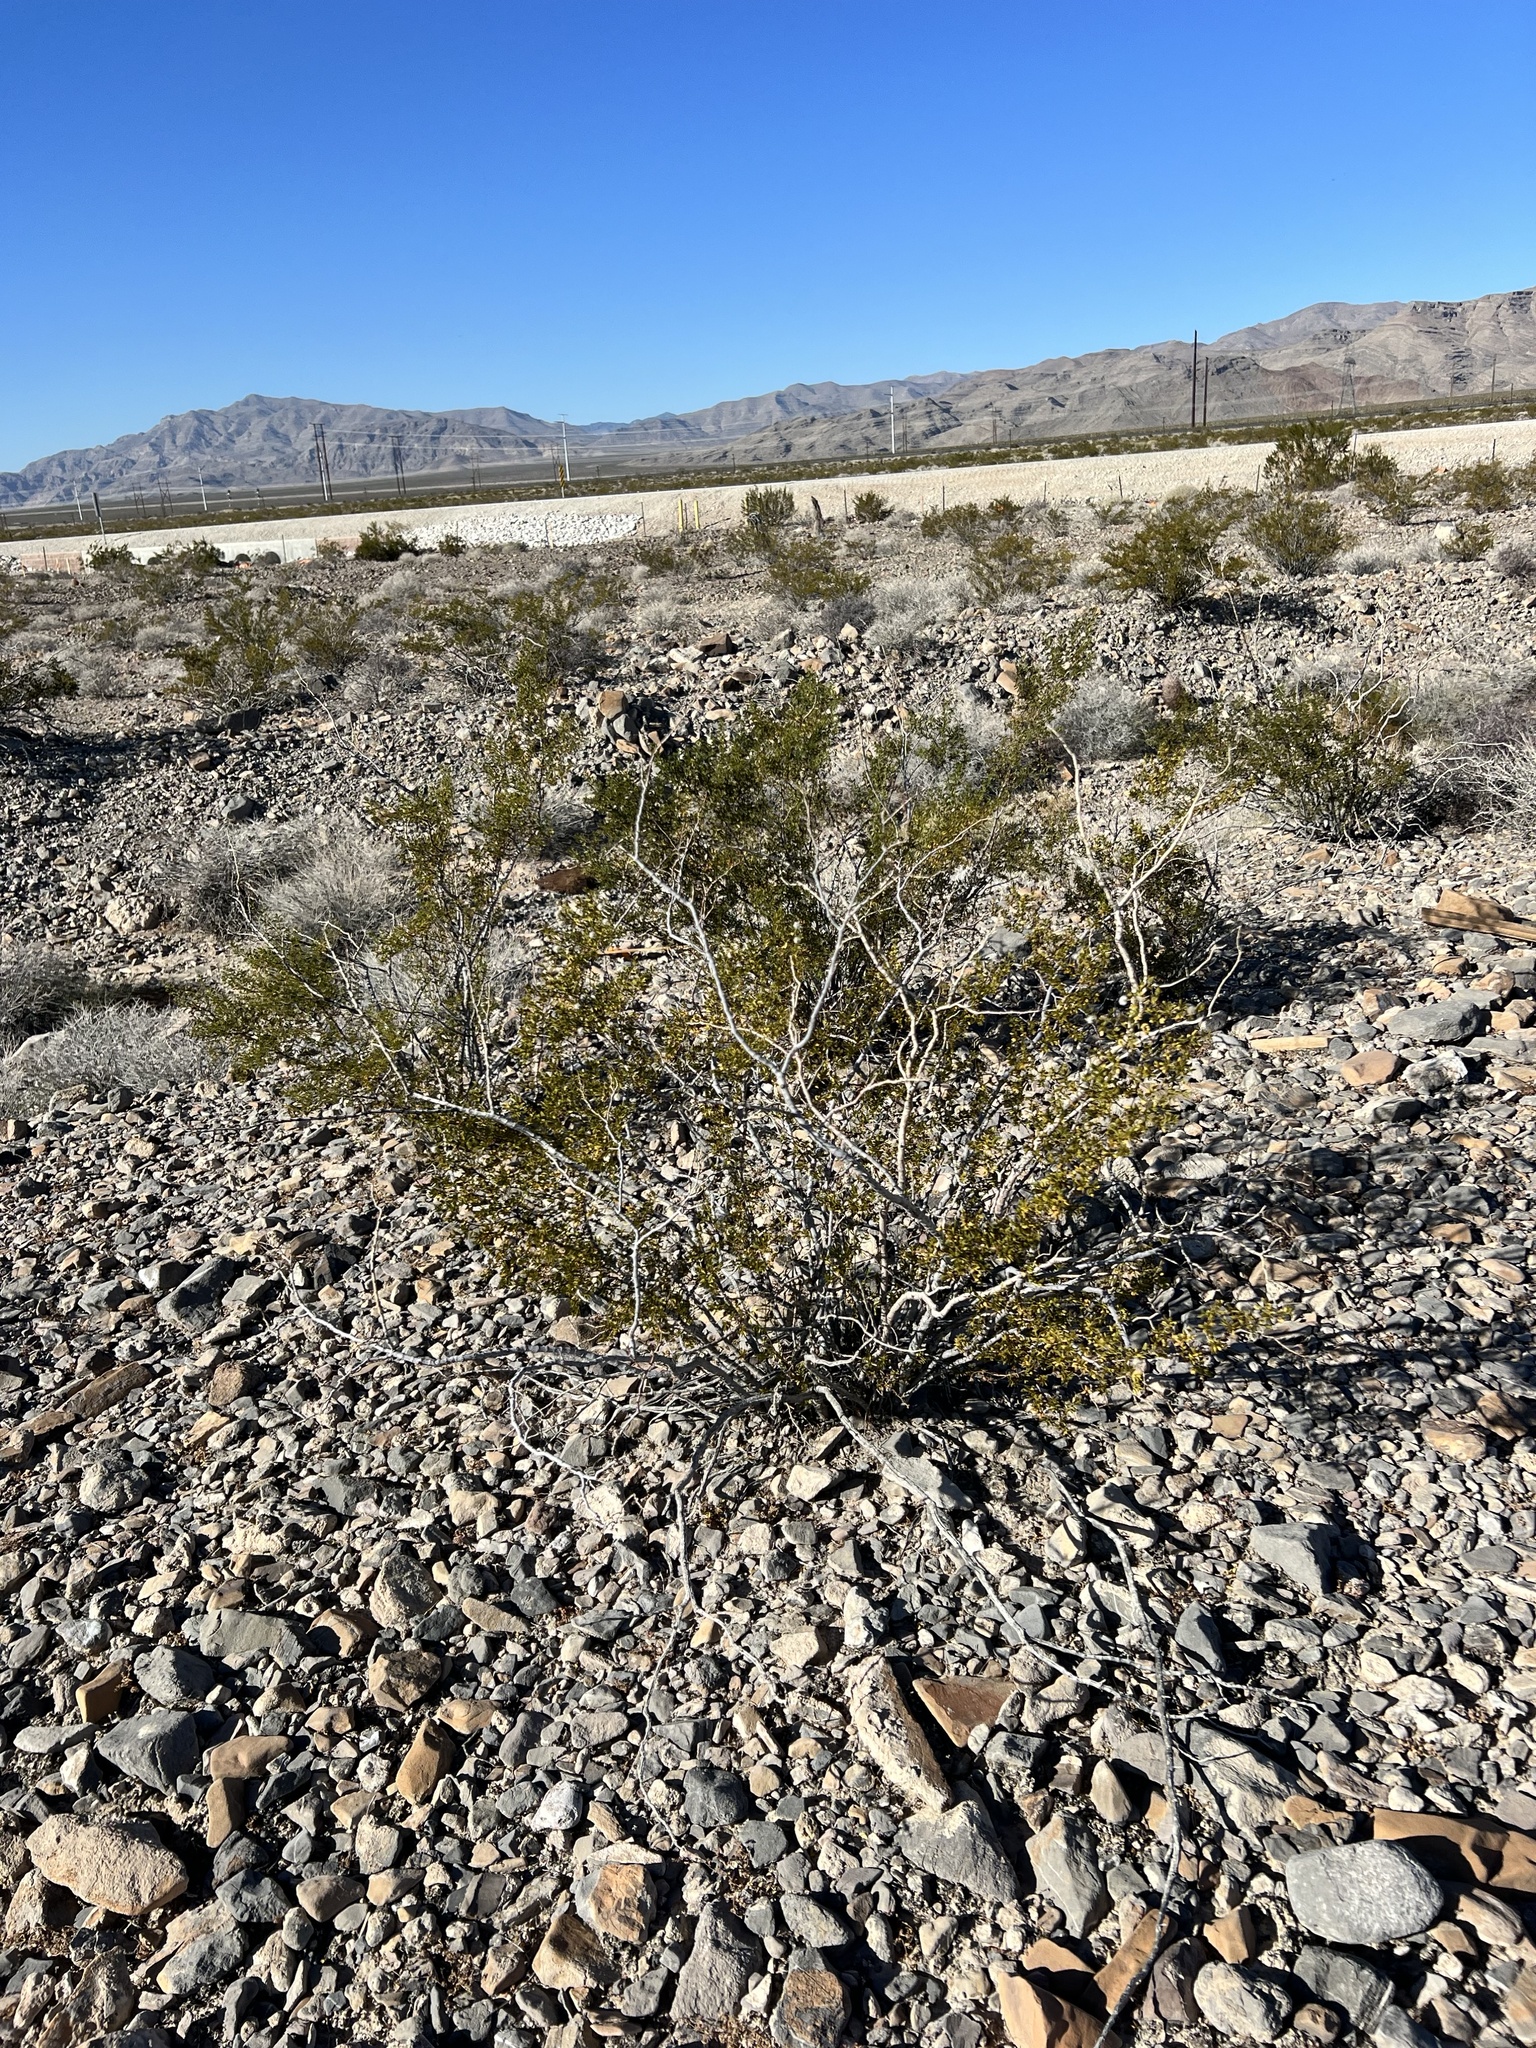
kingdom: Plantae
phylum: Tracheophyta
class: Magnoliopsida
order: Zygophyllales
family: Zygophyllaceae
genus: Larrea
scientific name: Larrea tridentata
